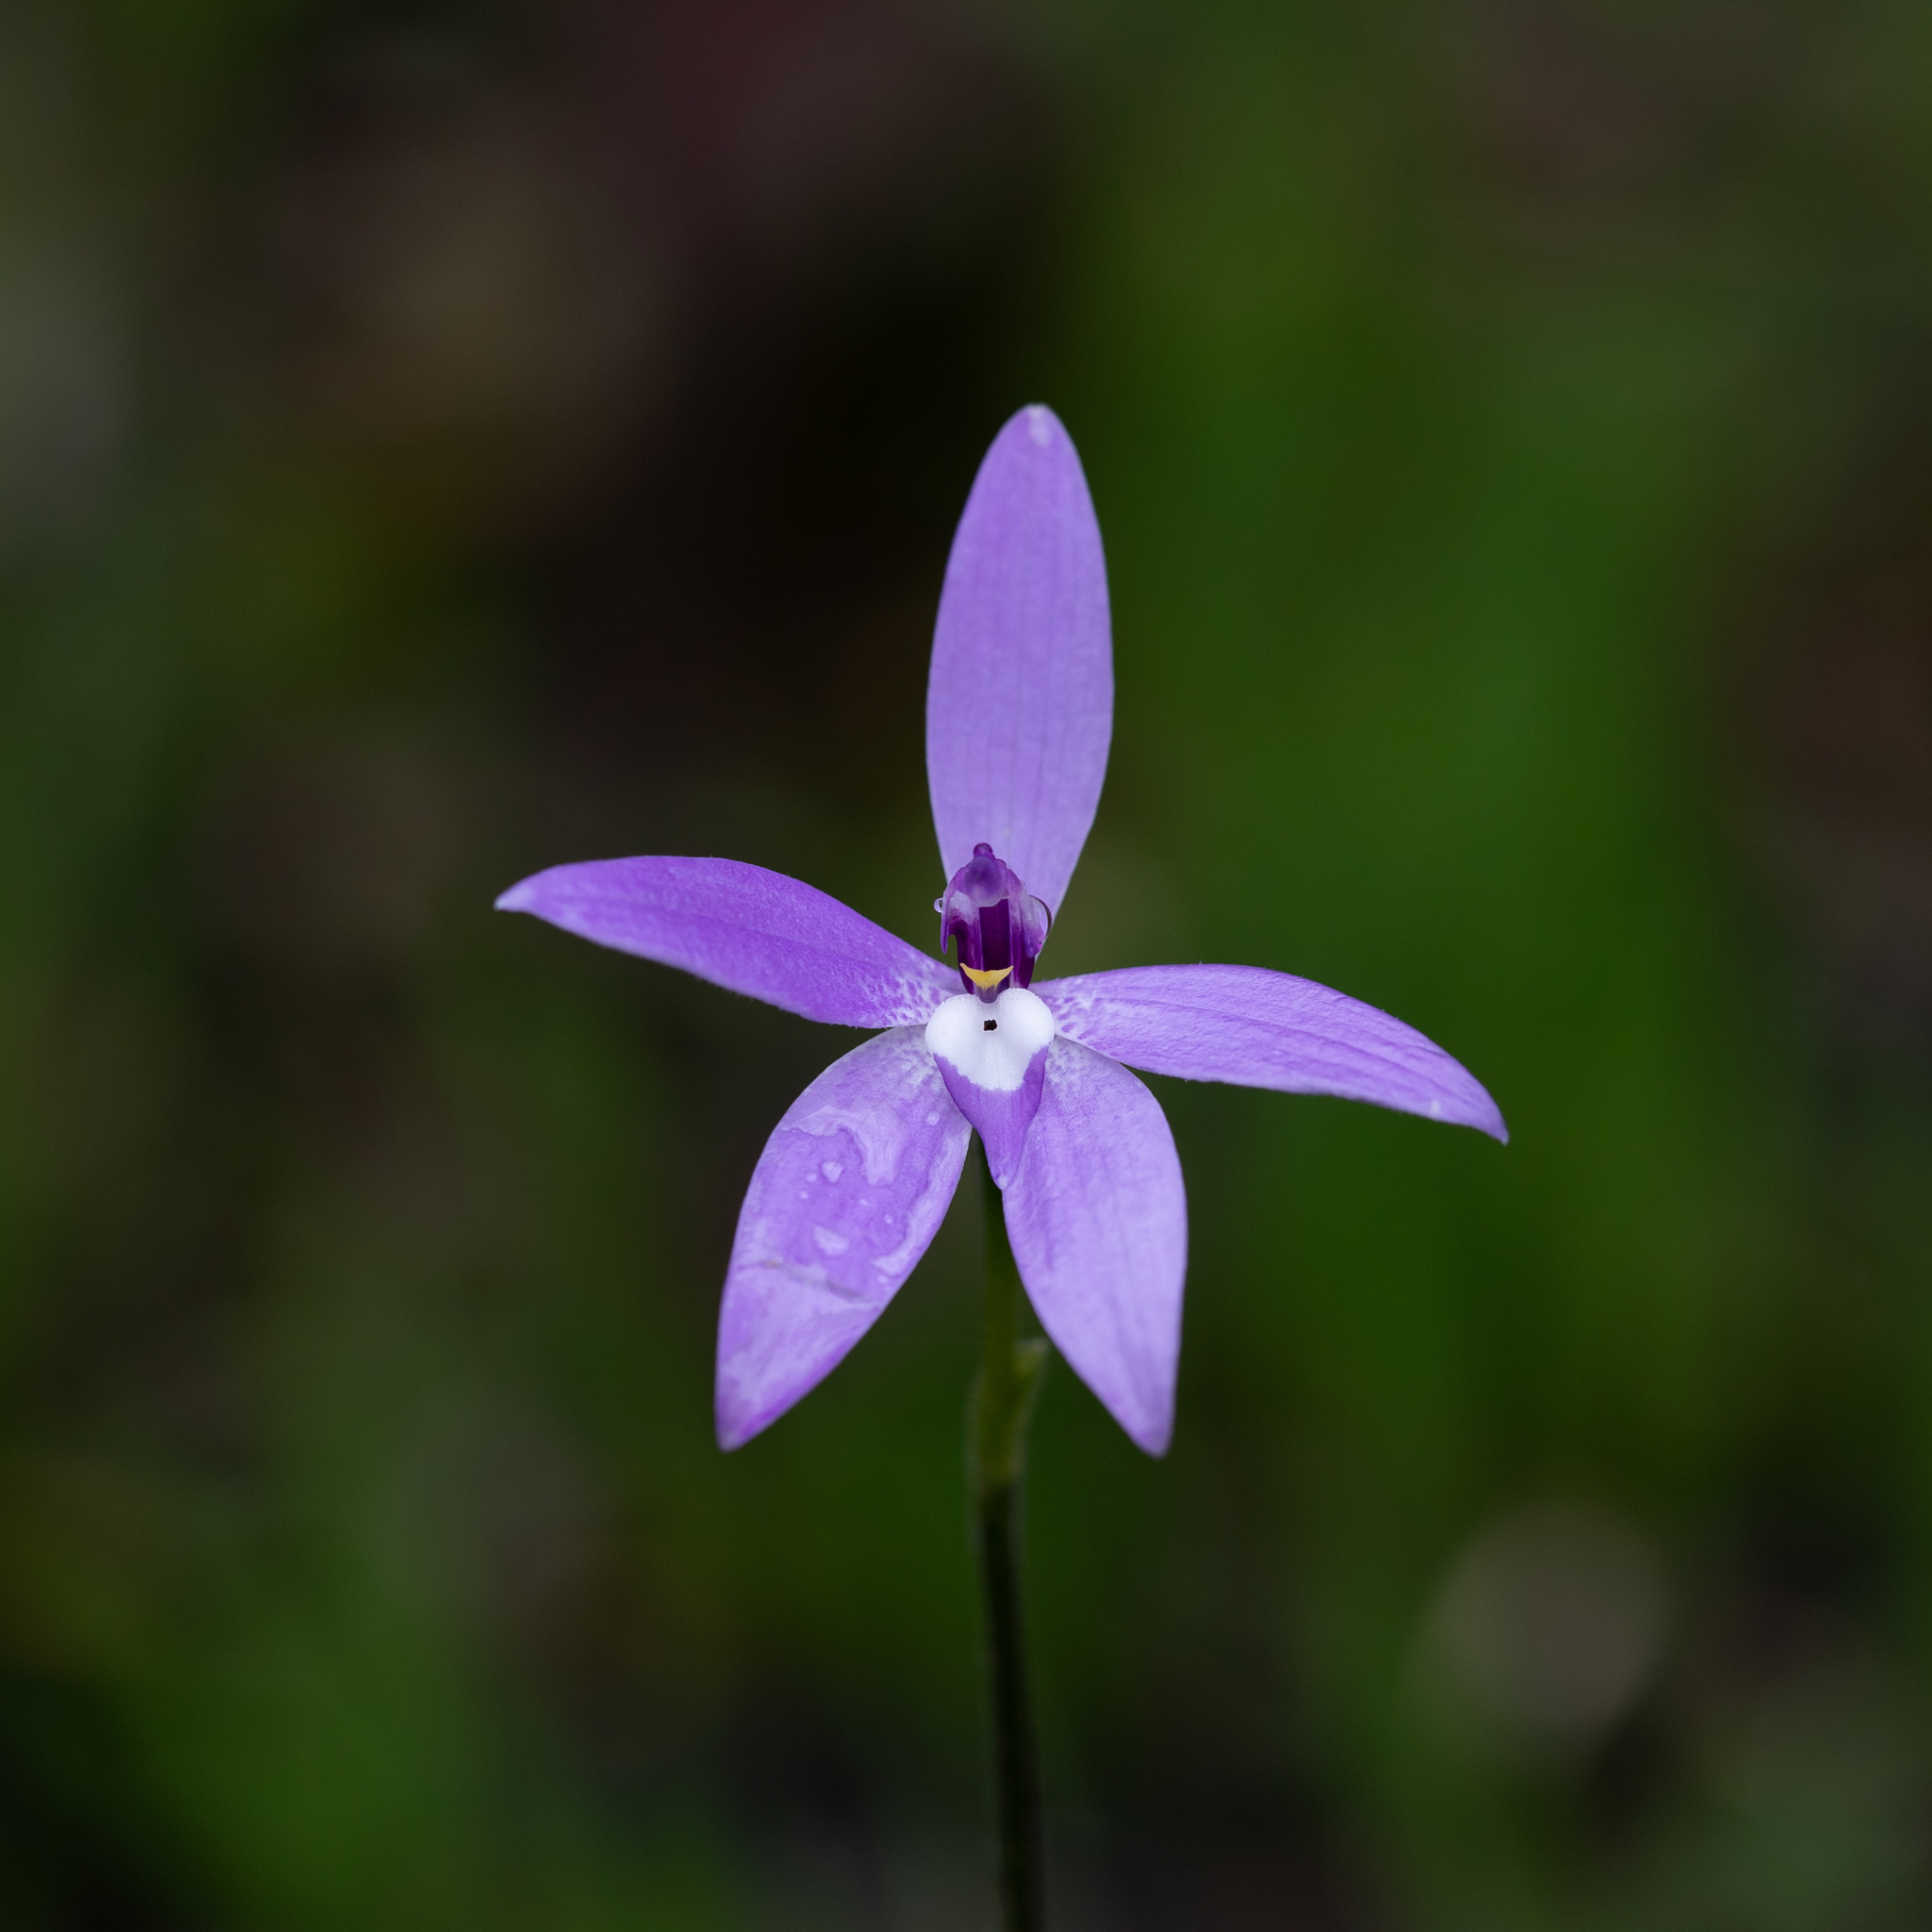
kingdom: Plantae
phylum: Tracheophyta
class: Liliopsida
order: Asparagales
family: Orchidaceae
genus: Caladenia
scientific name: Caladenia major
